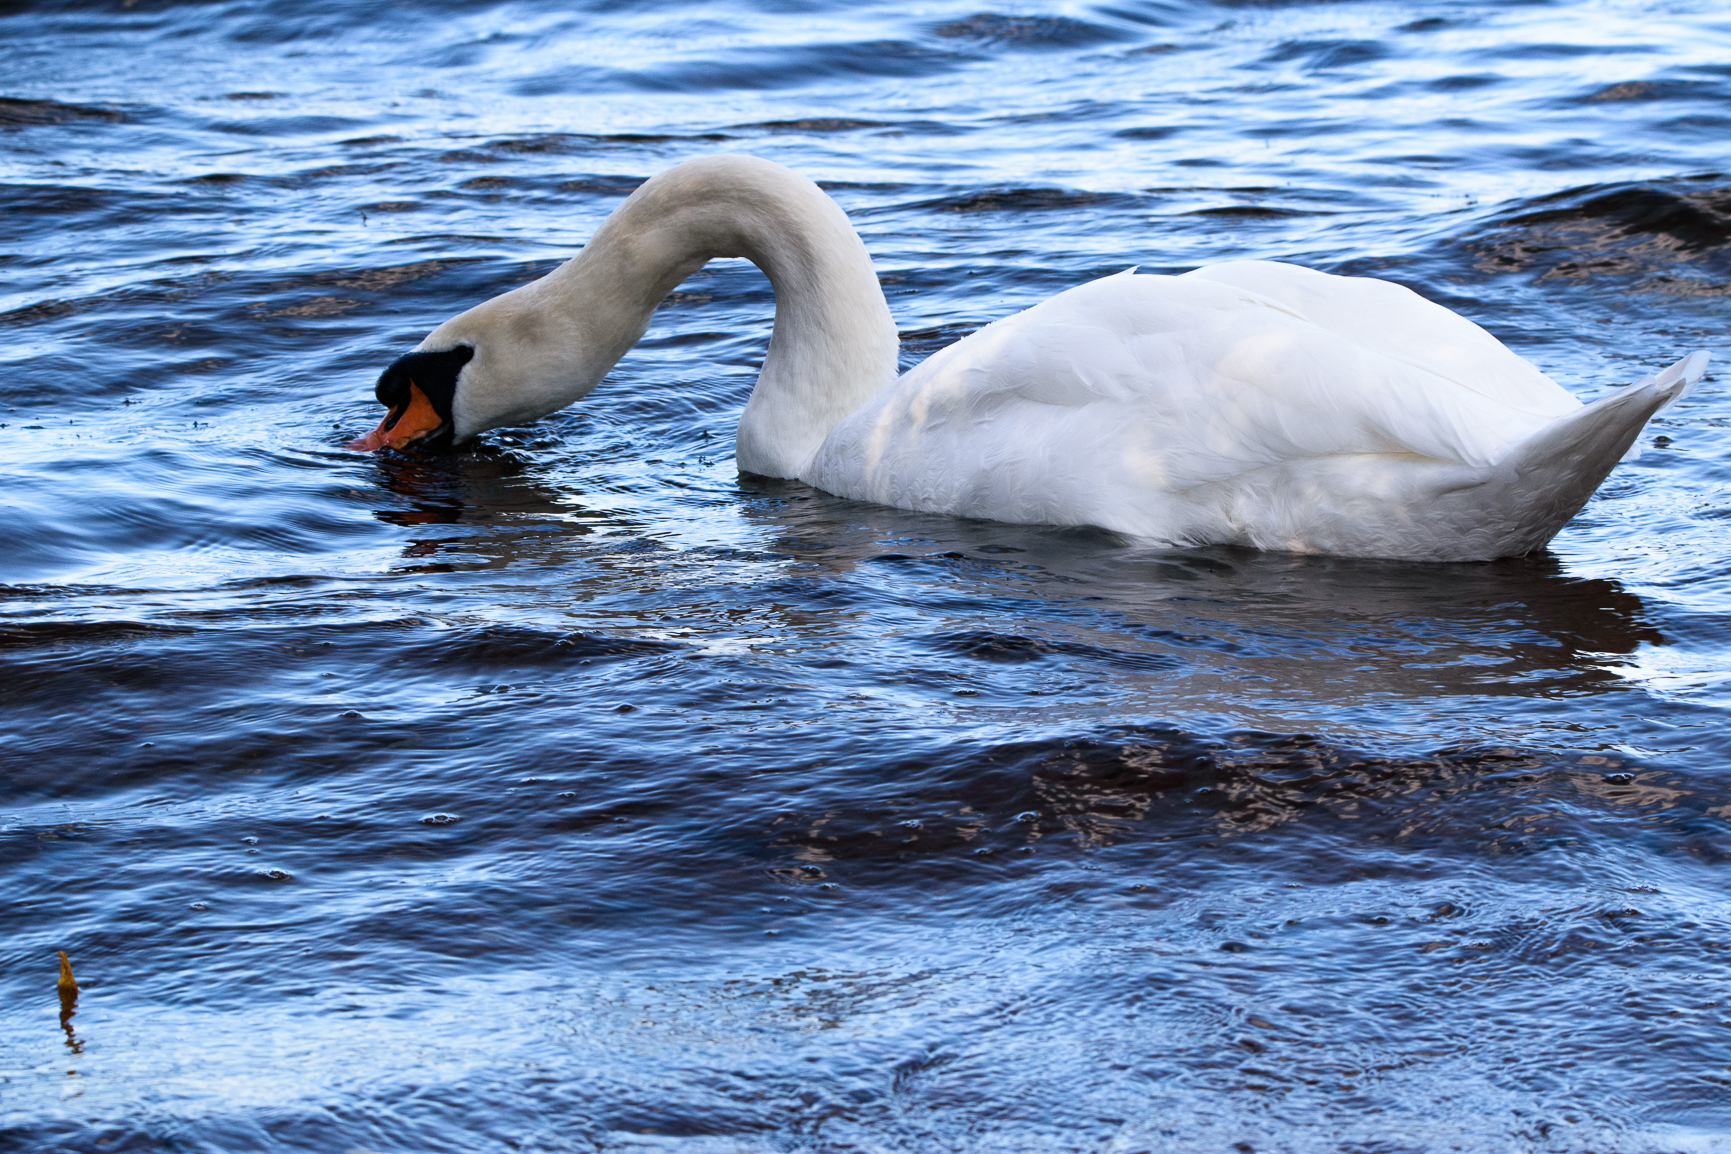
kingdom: Animalia
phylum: Chordata
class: Aves
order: Anseriformes
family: Anatidae
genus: Cygnus
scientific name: Cygnus olor
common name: Mute swan
